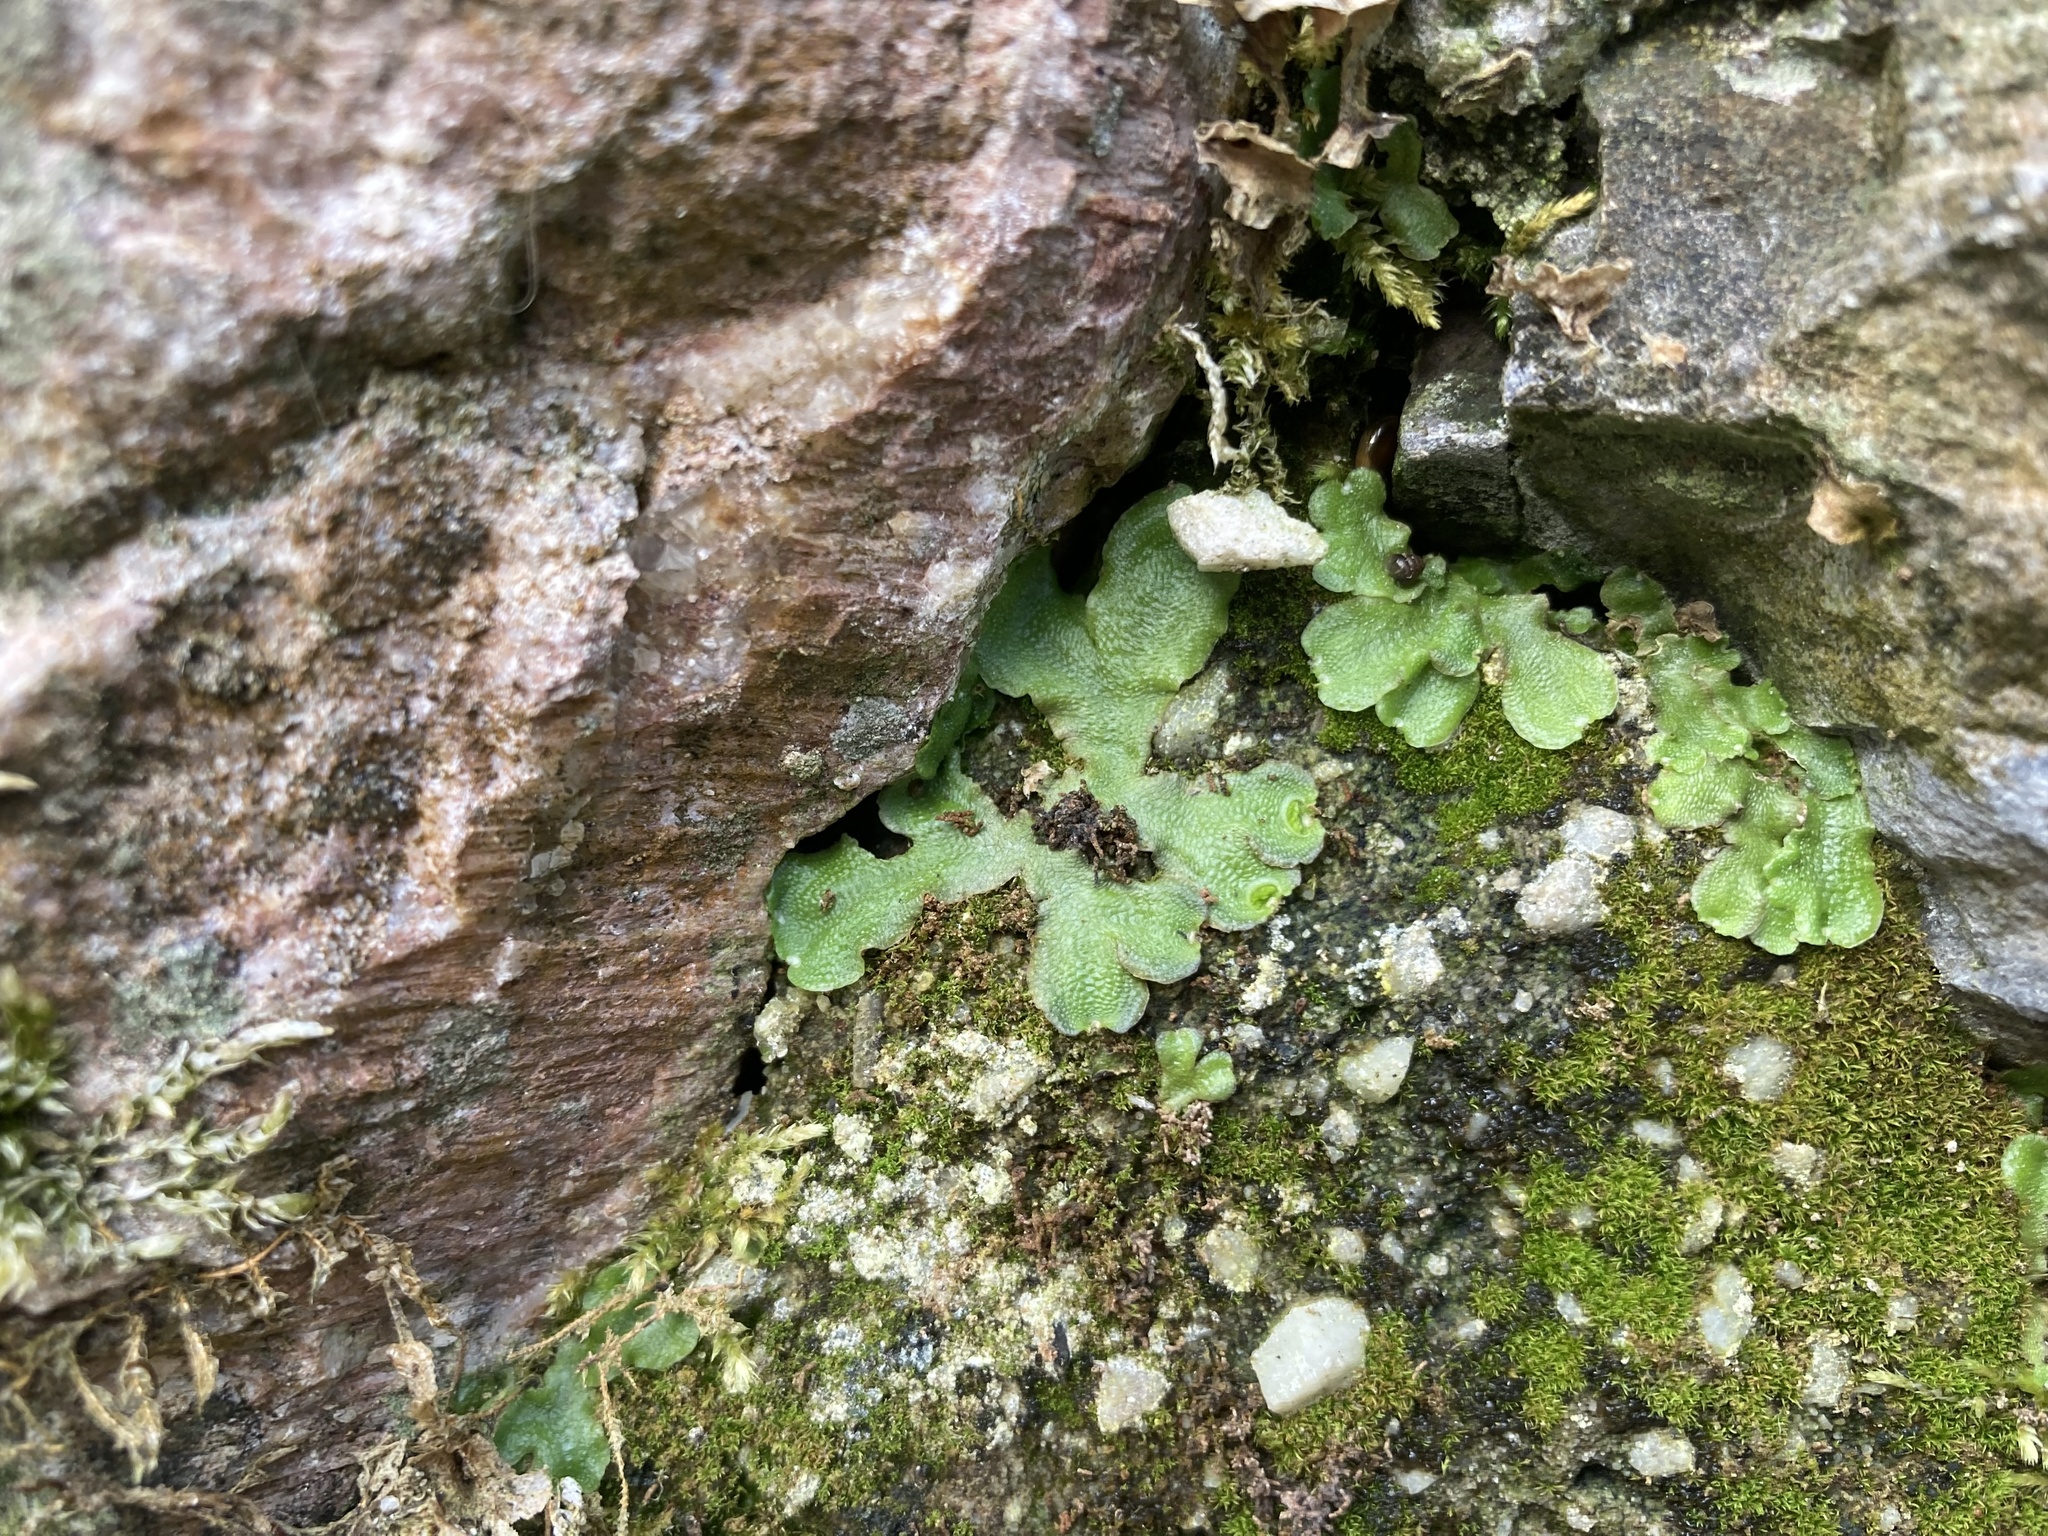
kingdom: Plantae
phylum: Marchantiophyta
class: Marchantiopsida
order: Lunulariales
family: Lunulariaceae
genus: Lunularia
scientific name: Lunularia cruciata
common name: Crescent-cup liverwort
